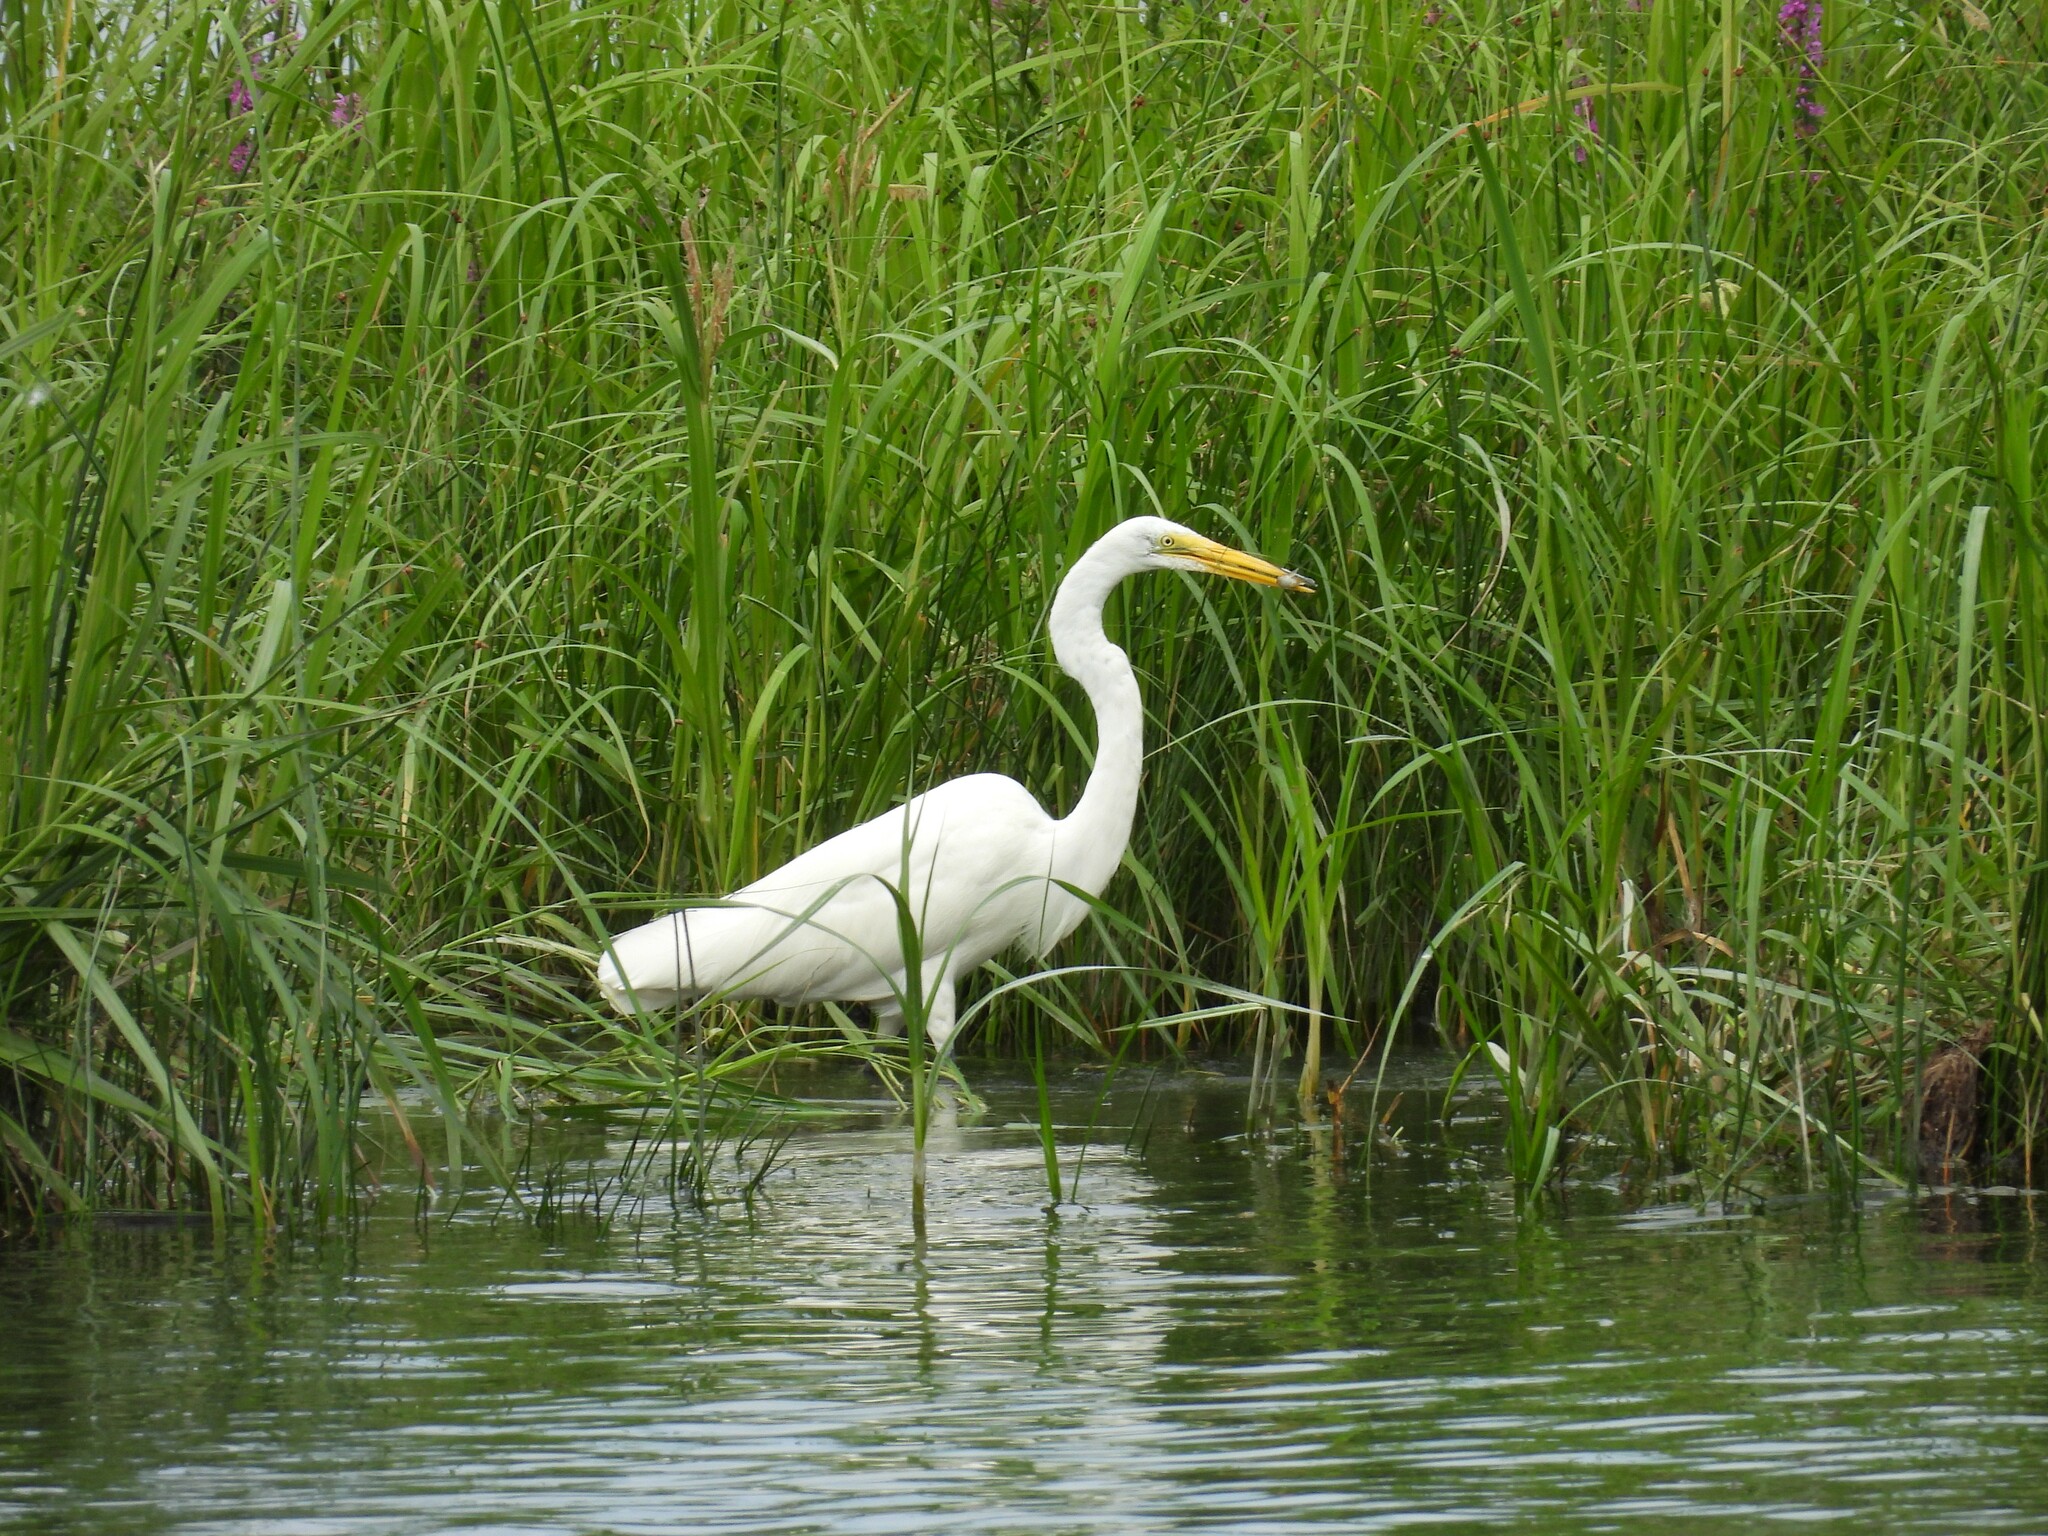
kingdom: Animalia
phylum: Chordata
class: Aves
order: Pelecaniformes
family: Ardeidae
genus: Ardea
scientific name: Ardea alba
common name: Great egret
